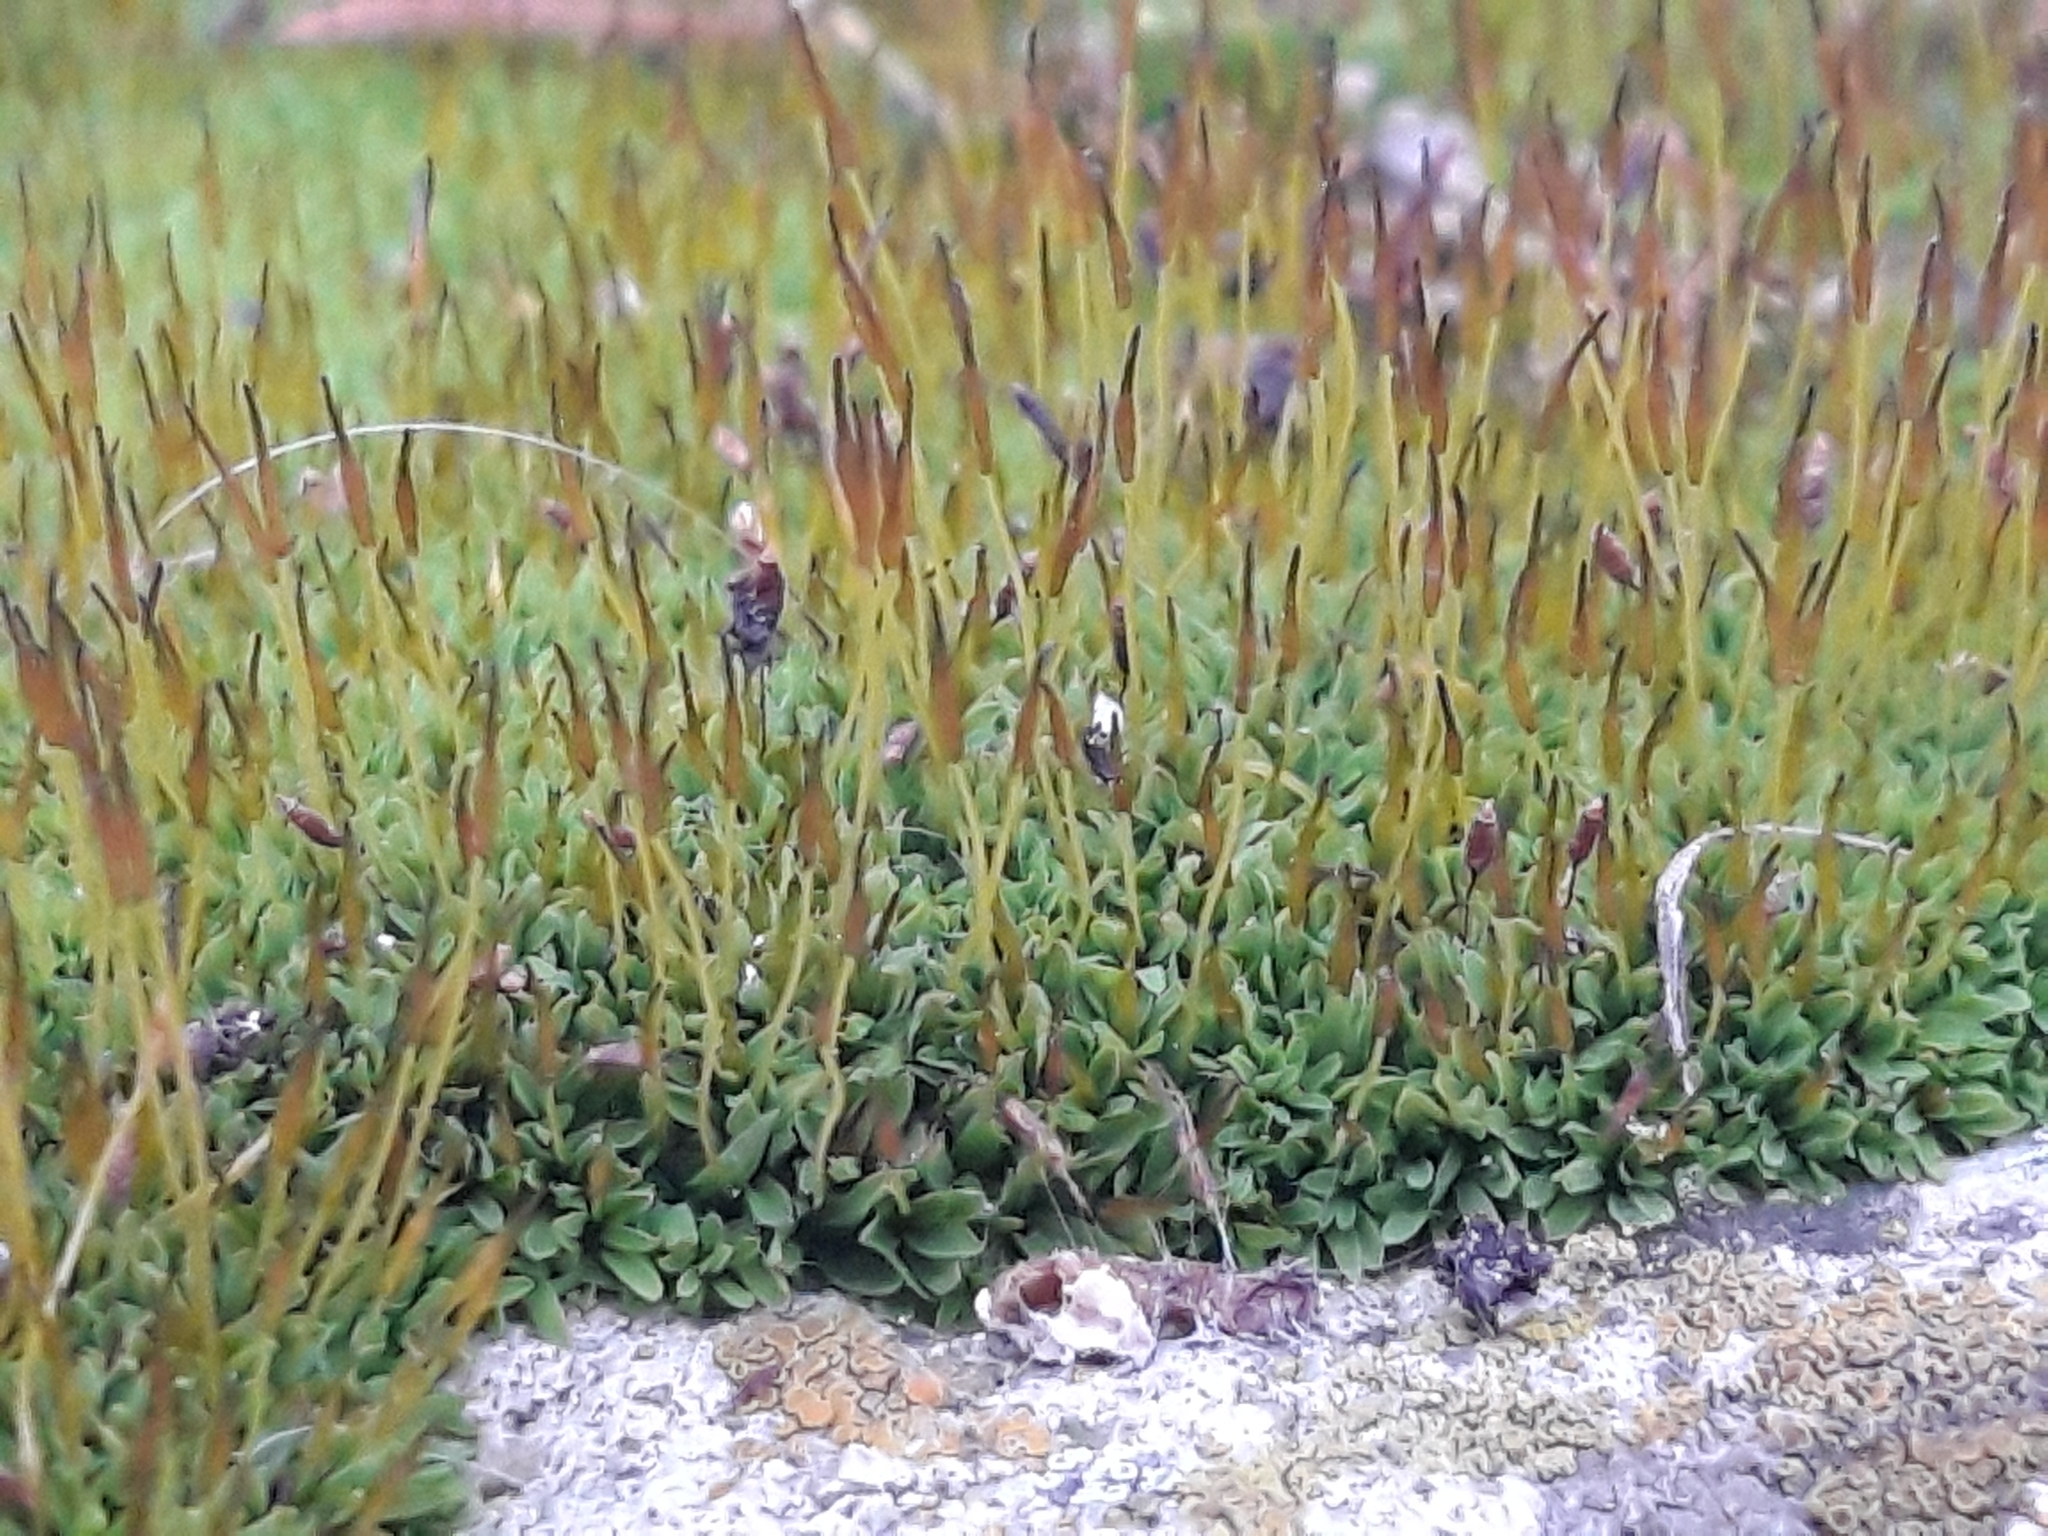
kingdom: Plantae
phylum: Bryophyta
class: Bryopsida
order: Pottiales
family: Pottiaceae
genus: Tortula
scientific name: Tortula muralis
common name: Wall screw-moss
